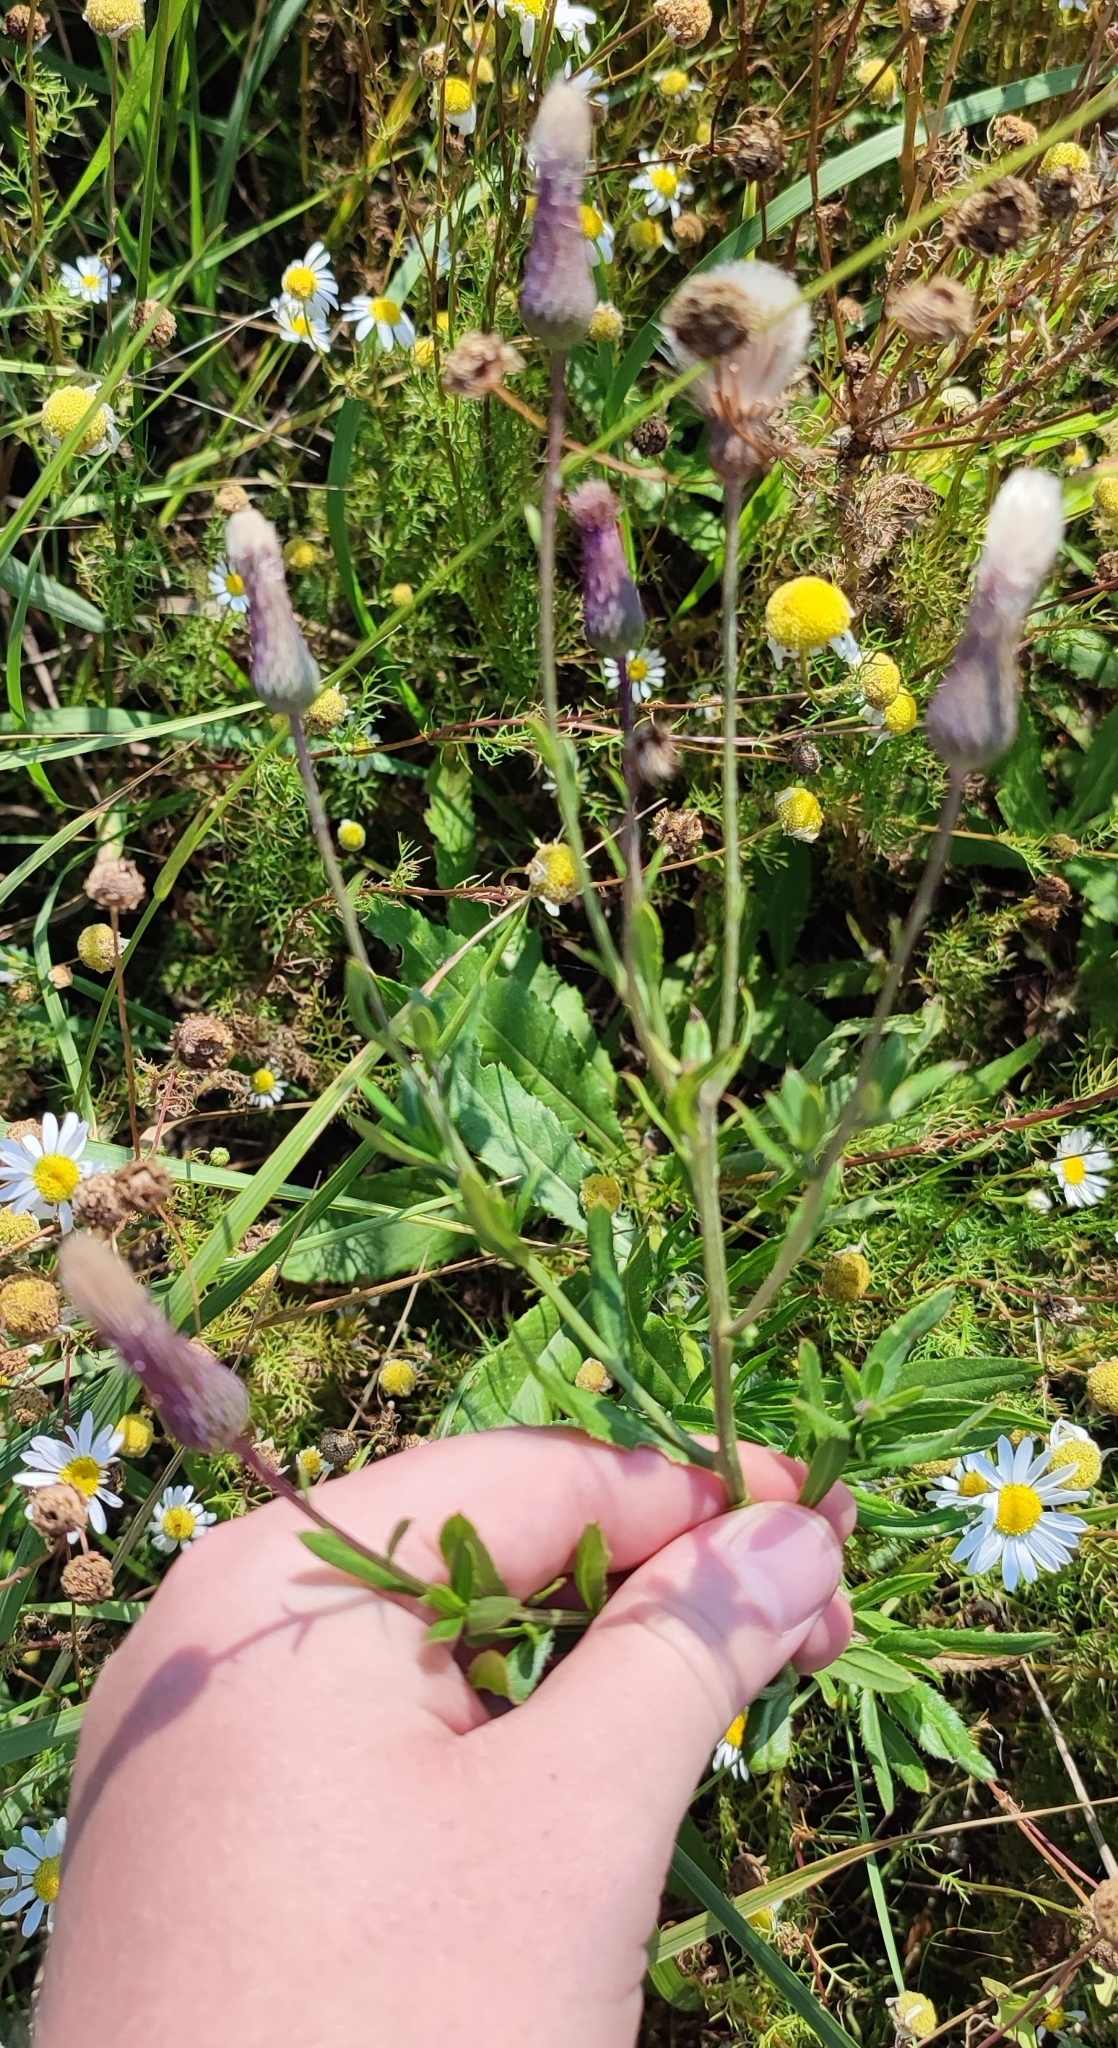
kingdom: Plantae
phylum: Tracheophyta
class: Magnoliopsida
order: Asterales
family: Asteraceae
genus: Cirsium
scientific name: Cirsium arvense
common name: Creeping thistle
